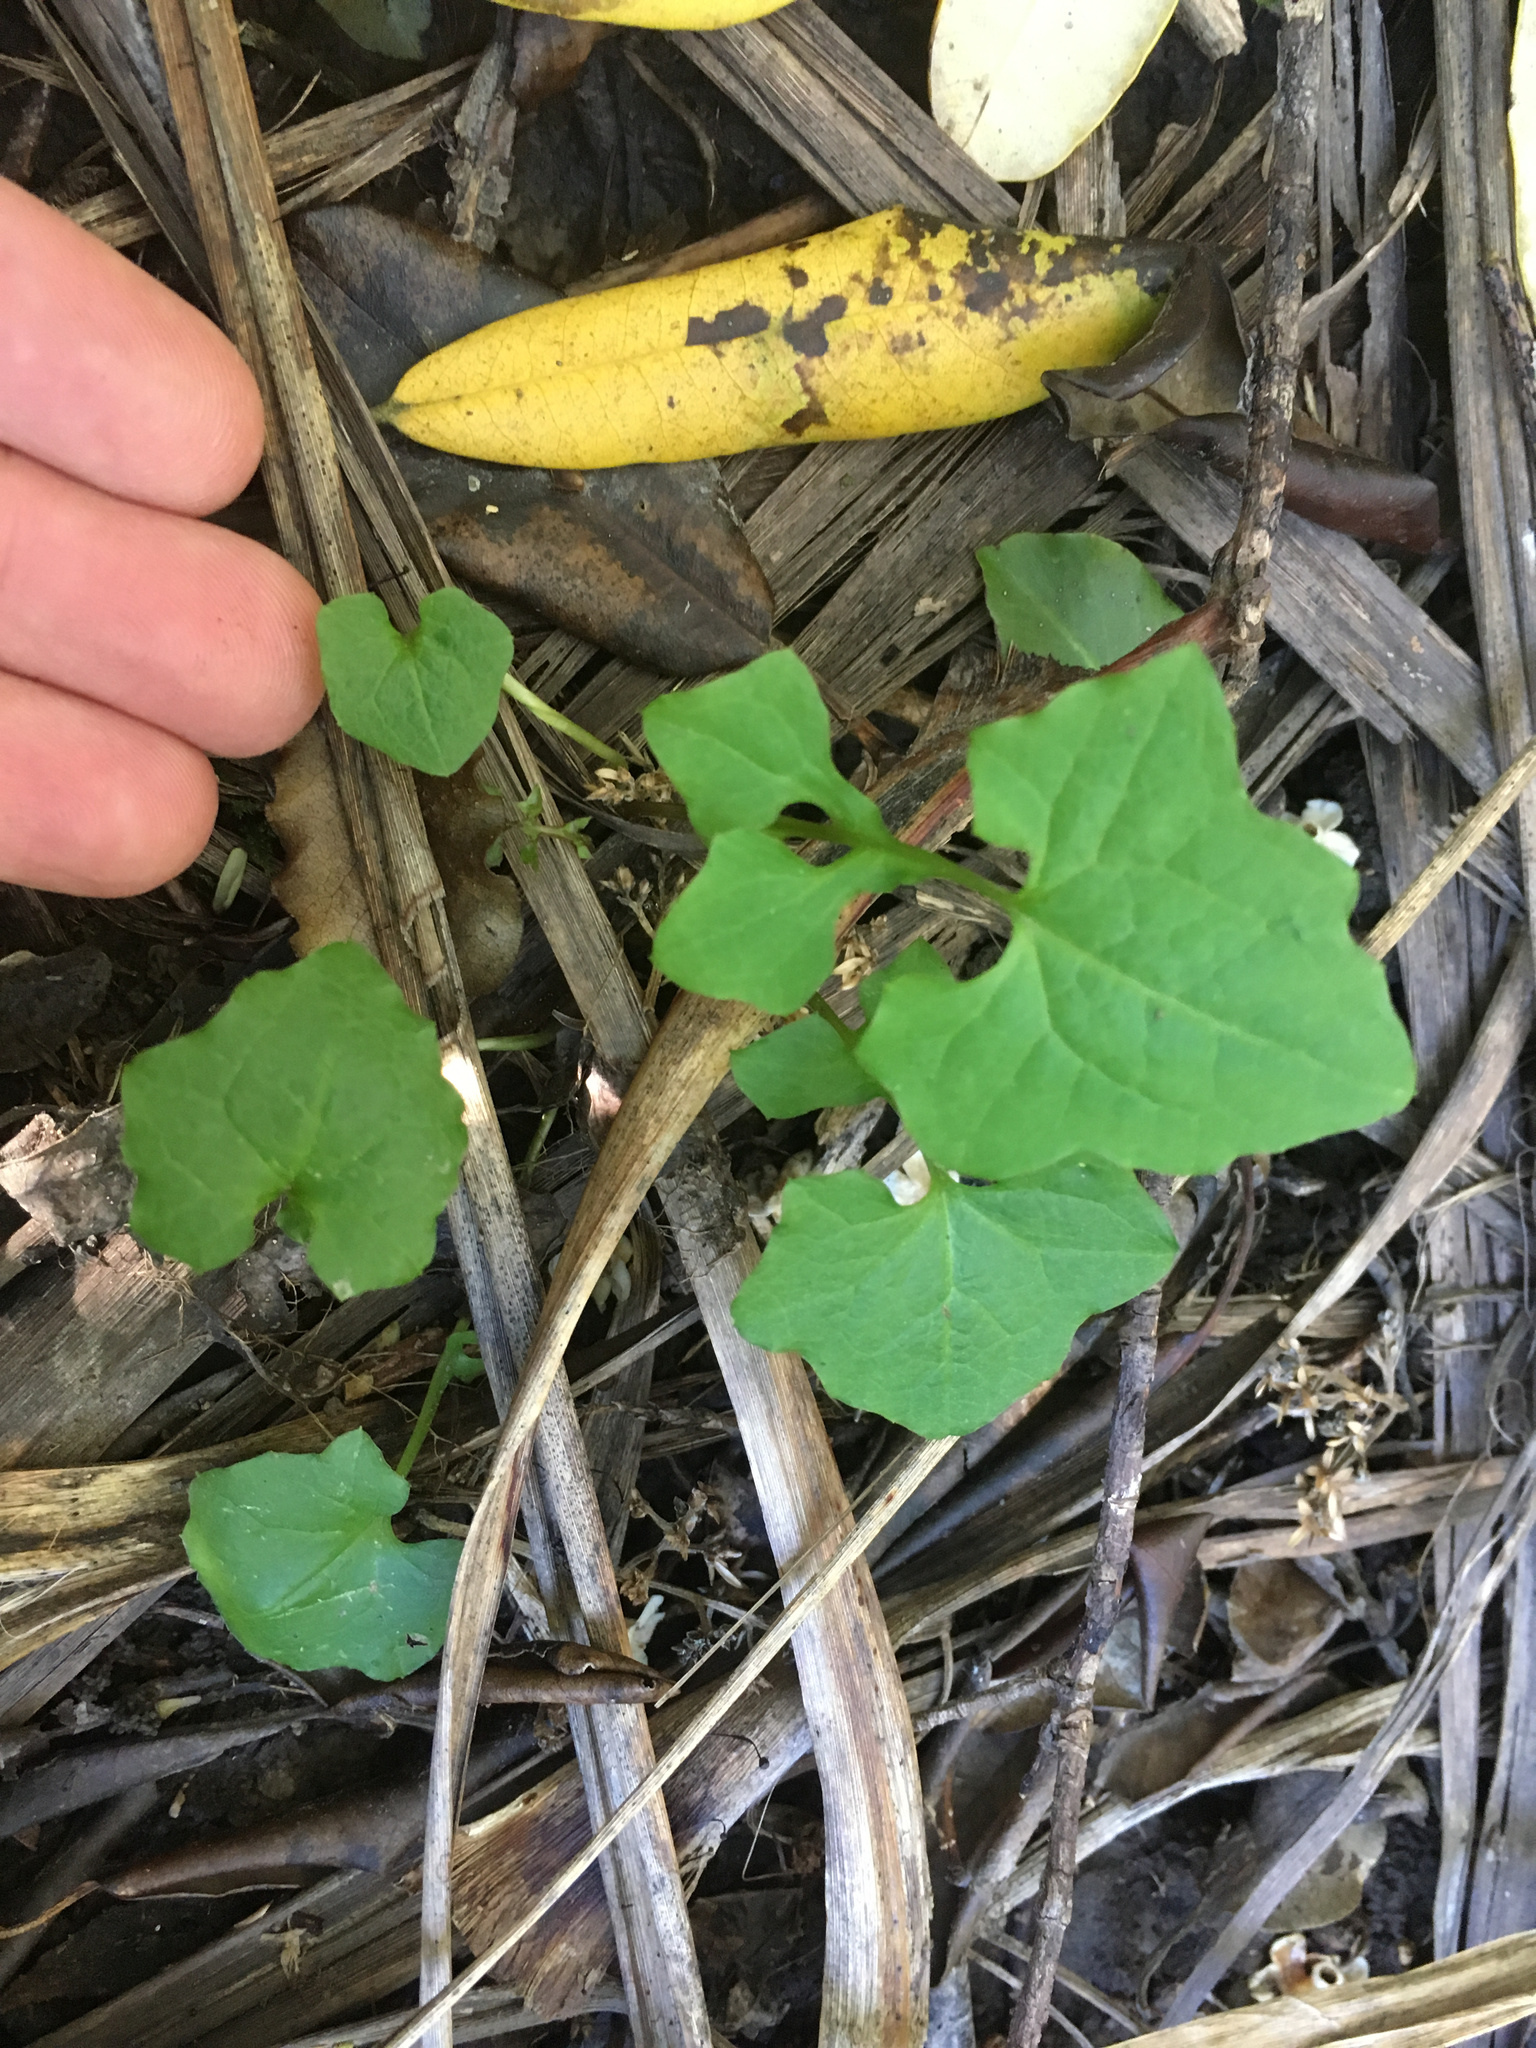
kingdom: Plantae
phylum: Tracheophyta
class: Magnoliopsida
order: Asterales
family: Asteraceae
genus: Mycelis
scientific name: Mycelis muralis
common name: Wall lettuce
